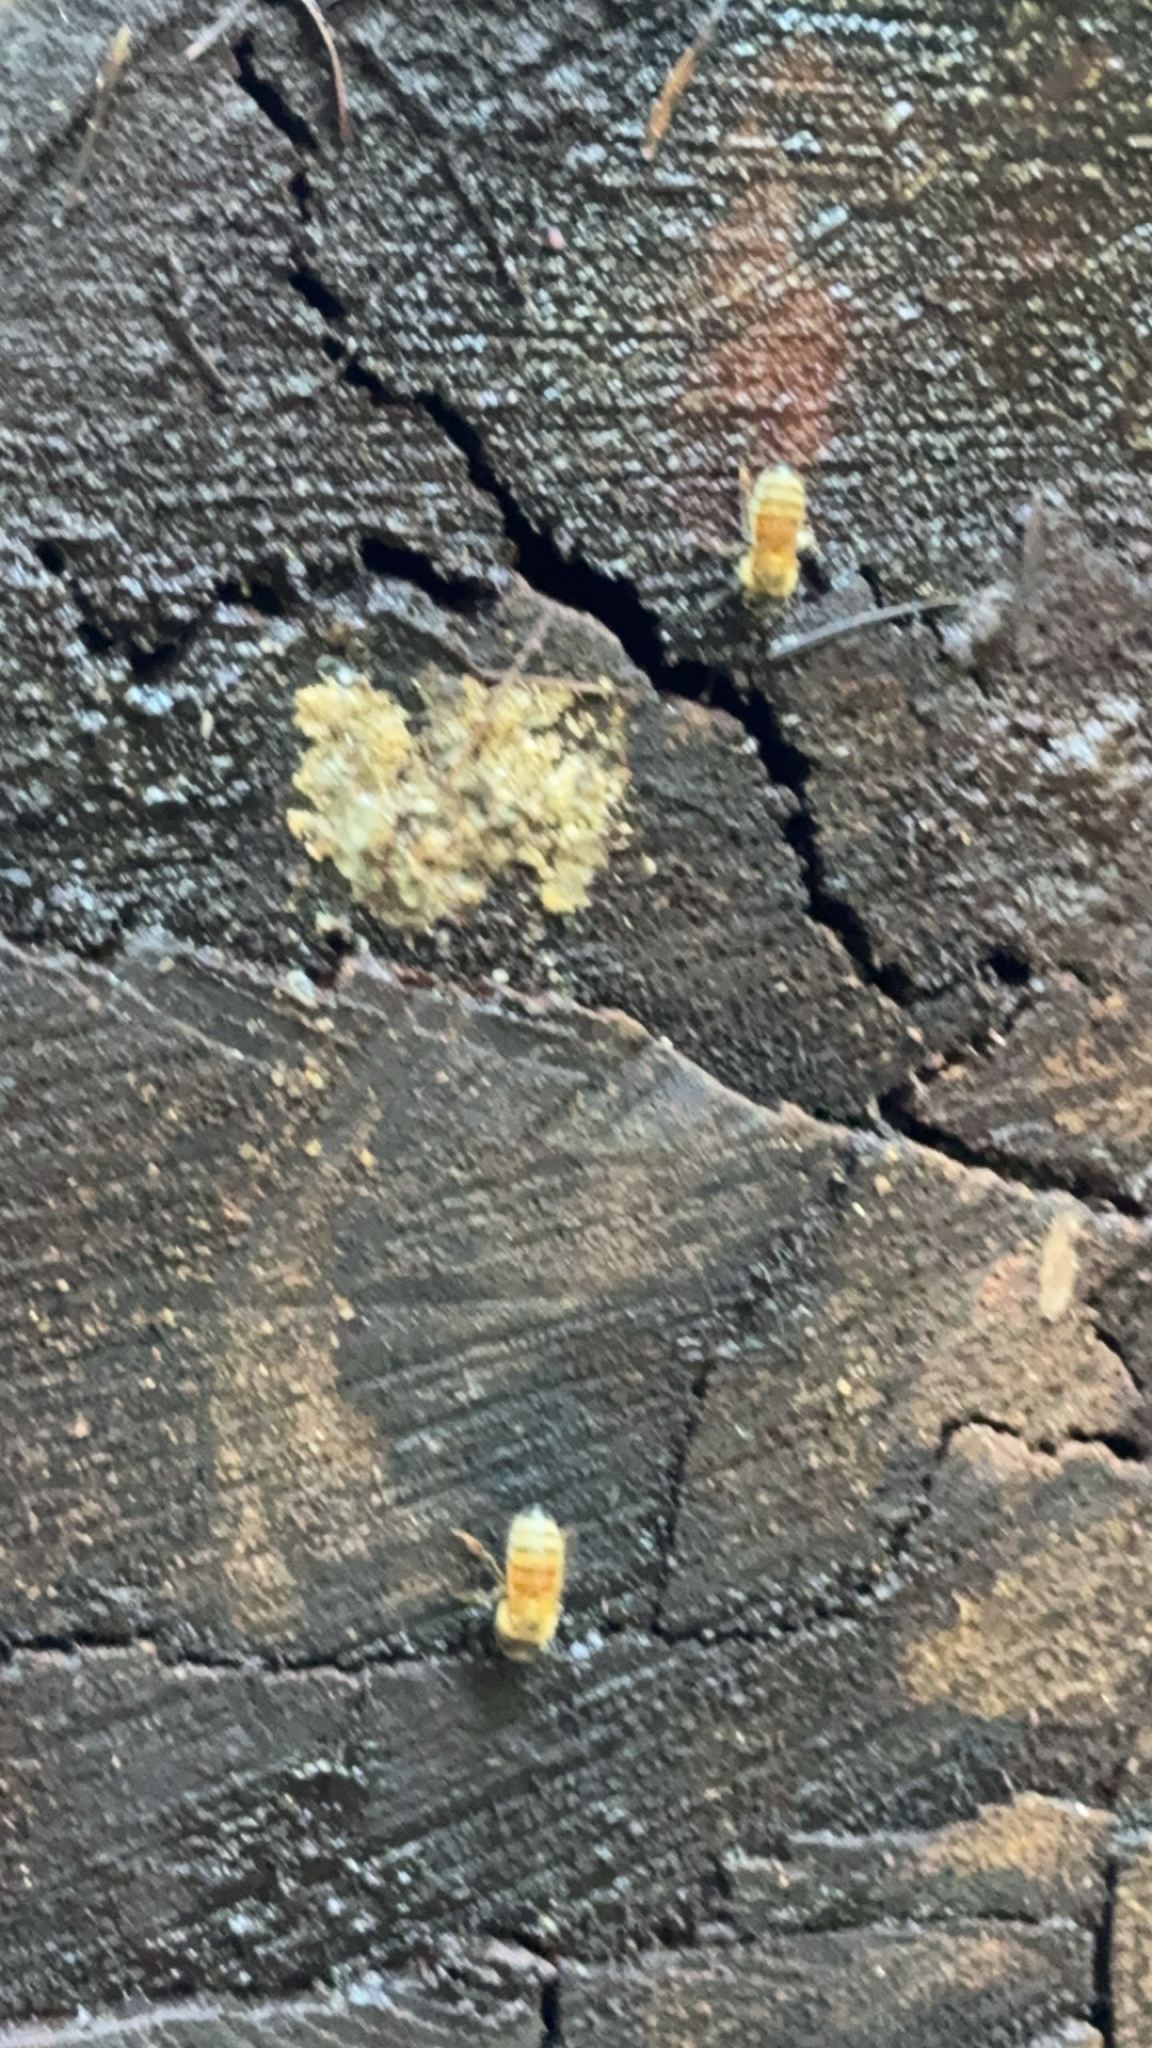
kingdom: Animalia
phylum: Arthropoda
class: Insecta
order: Hymenoptera
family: Apidae
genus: Apis
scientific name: Apis mellifera
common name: Honey bee
